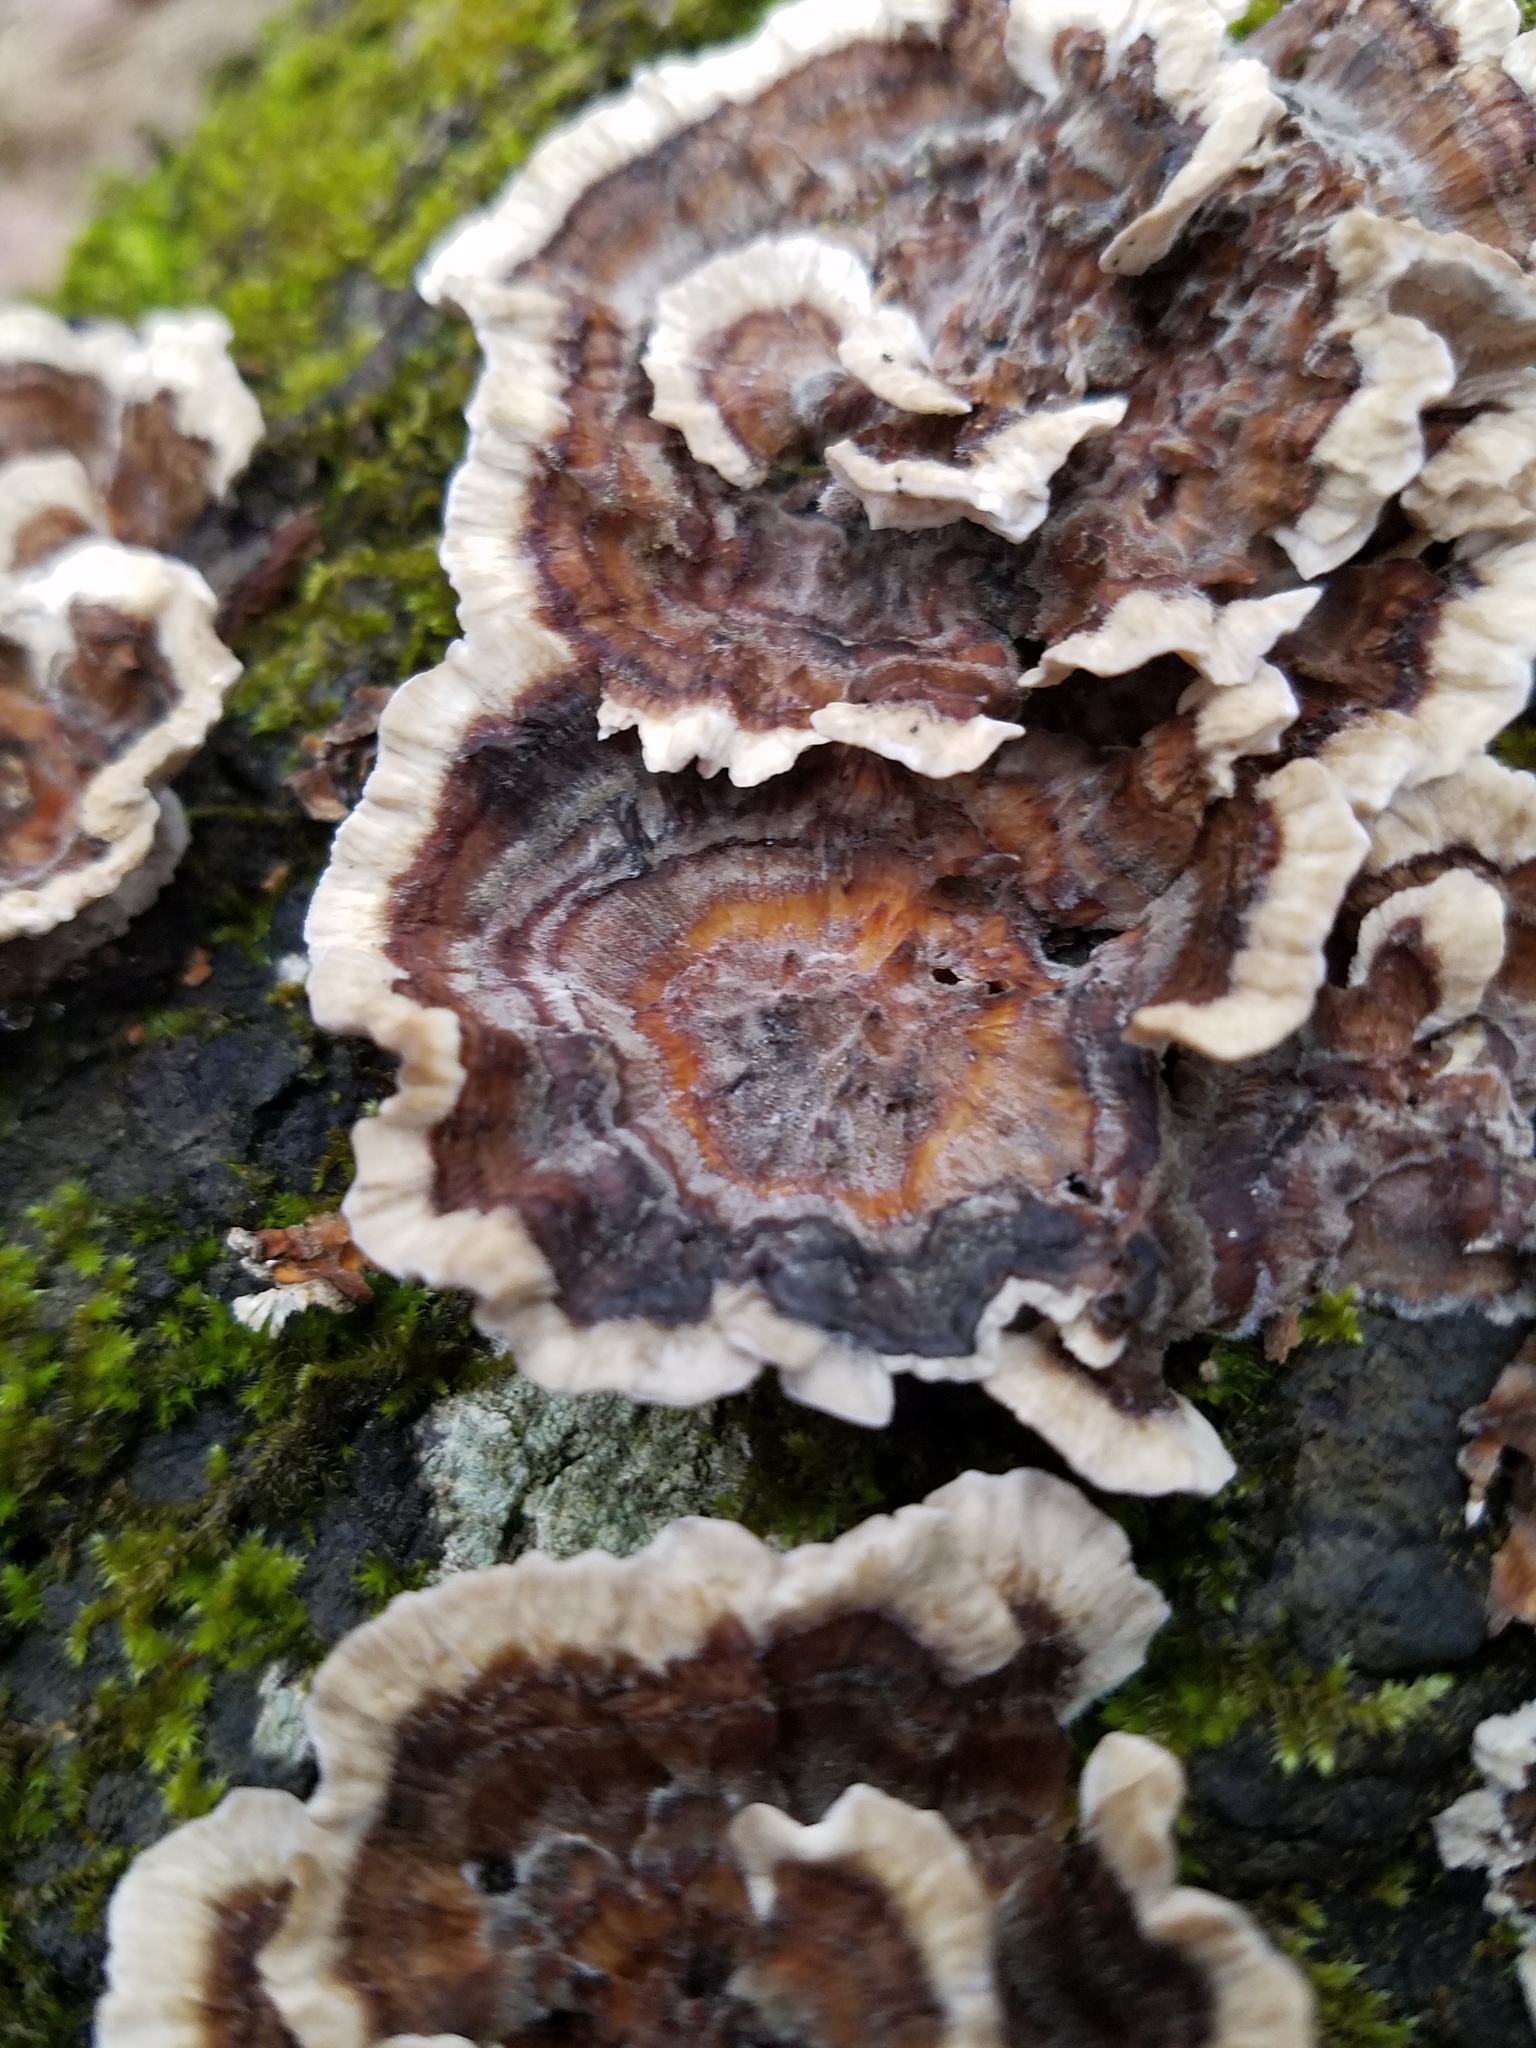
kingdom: Fungi
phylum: Basidiomycota
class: Agaricomycetes
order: Polyporales
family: Polyporaceae
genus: Trametes
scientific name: Trametes versicolor
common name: Turkeytail
